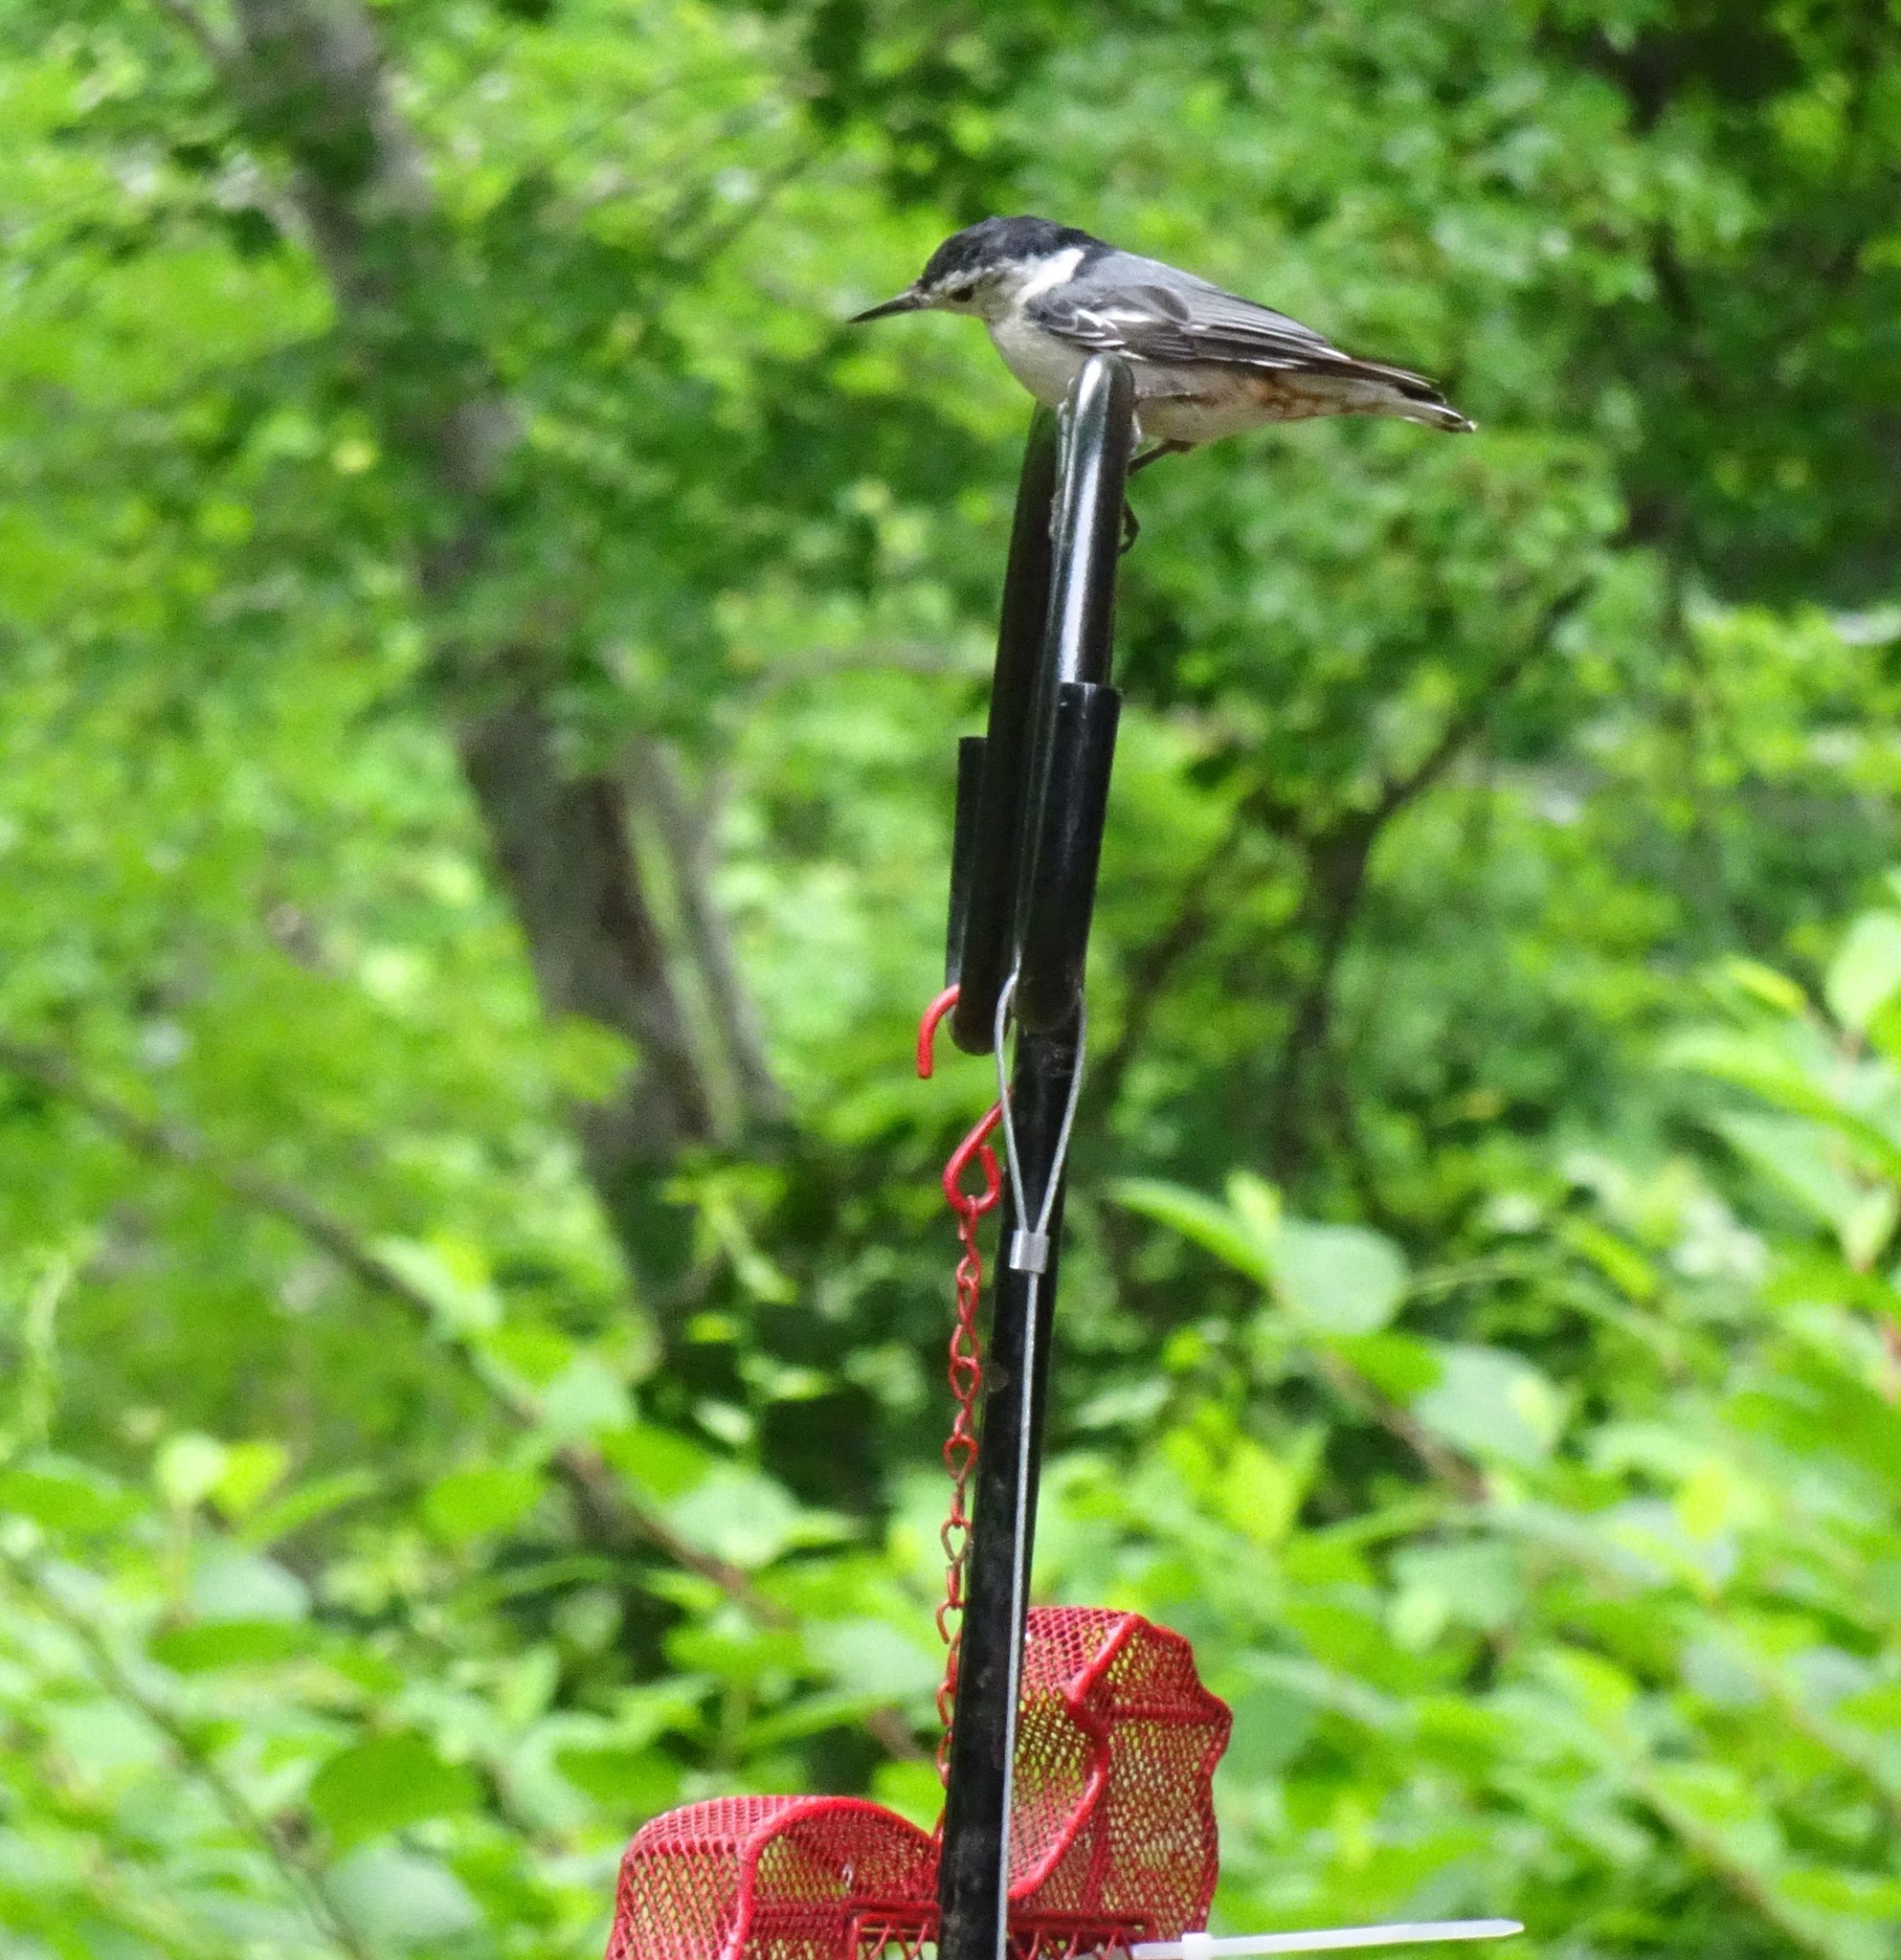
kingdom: Animalia
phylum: Chordata
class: Aves
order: Passeriformes
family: Sittidae
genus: Sitta
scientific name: Sitta carolinensis
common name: White-breasted nuthatch
